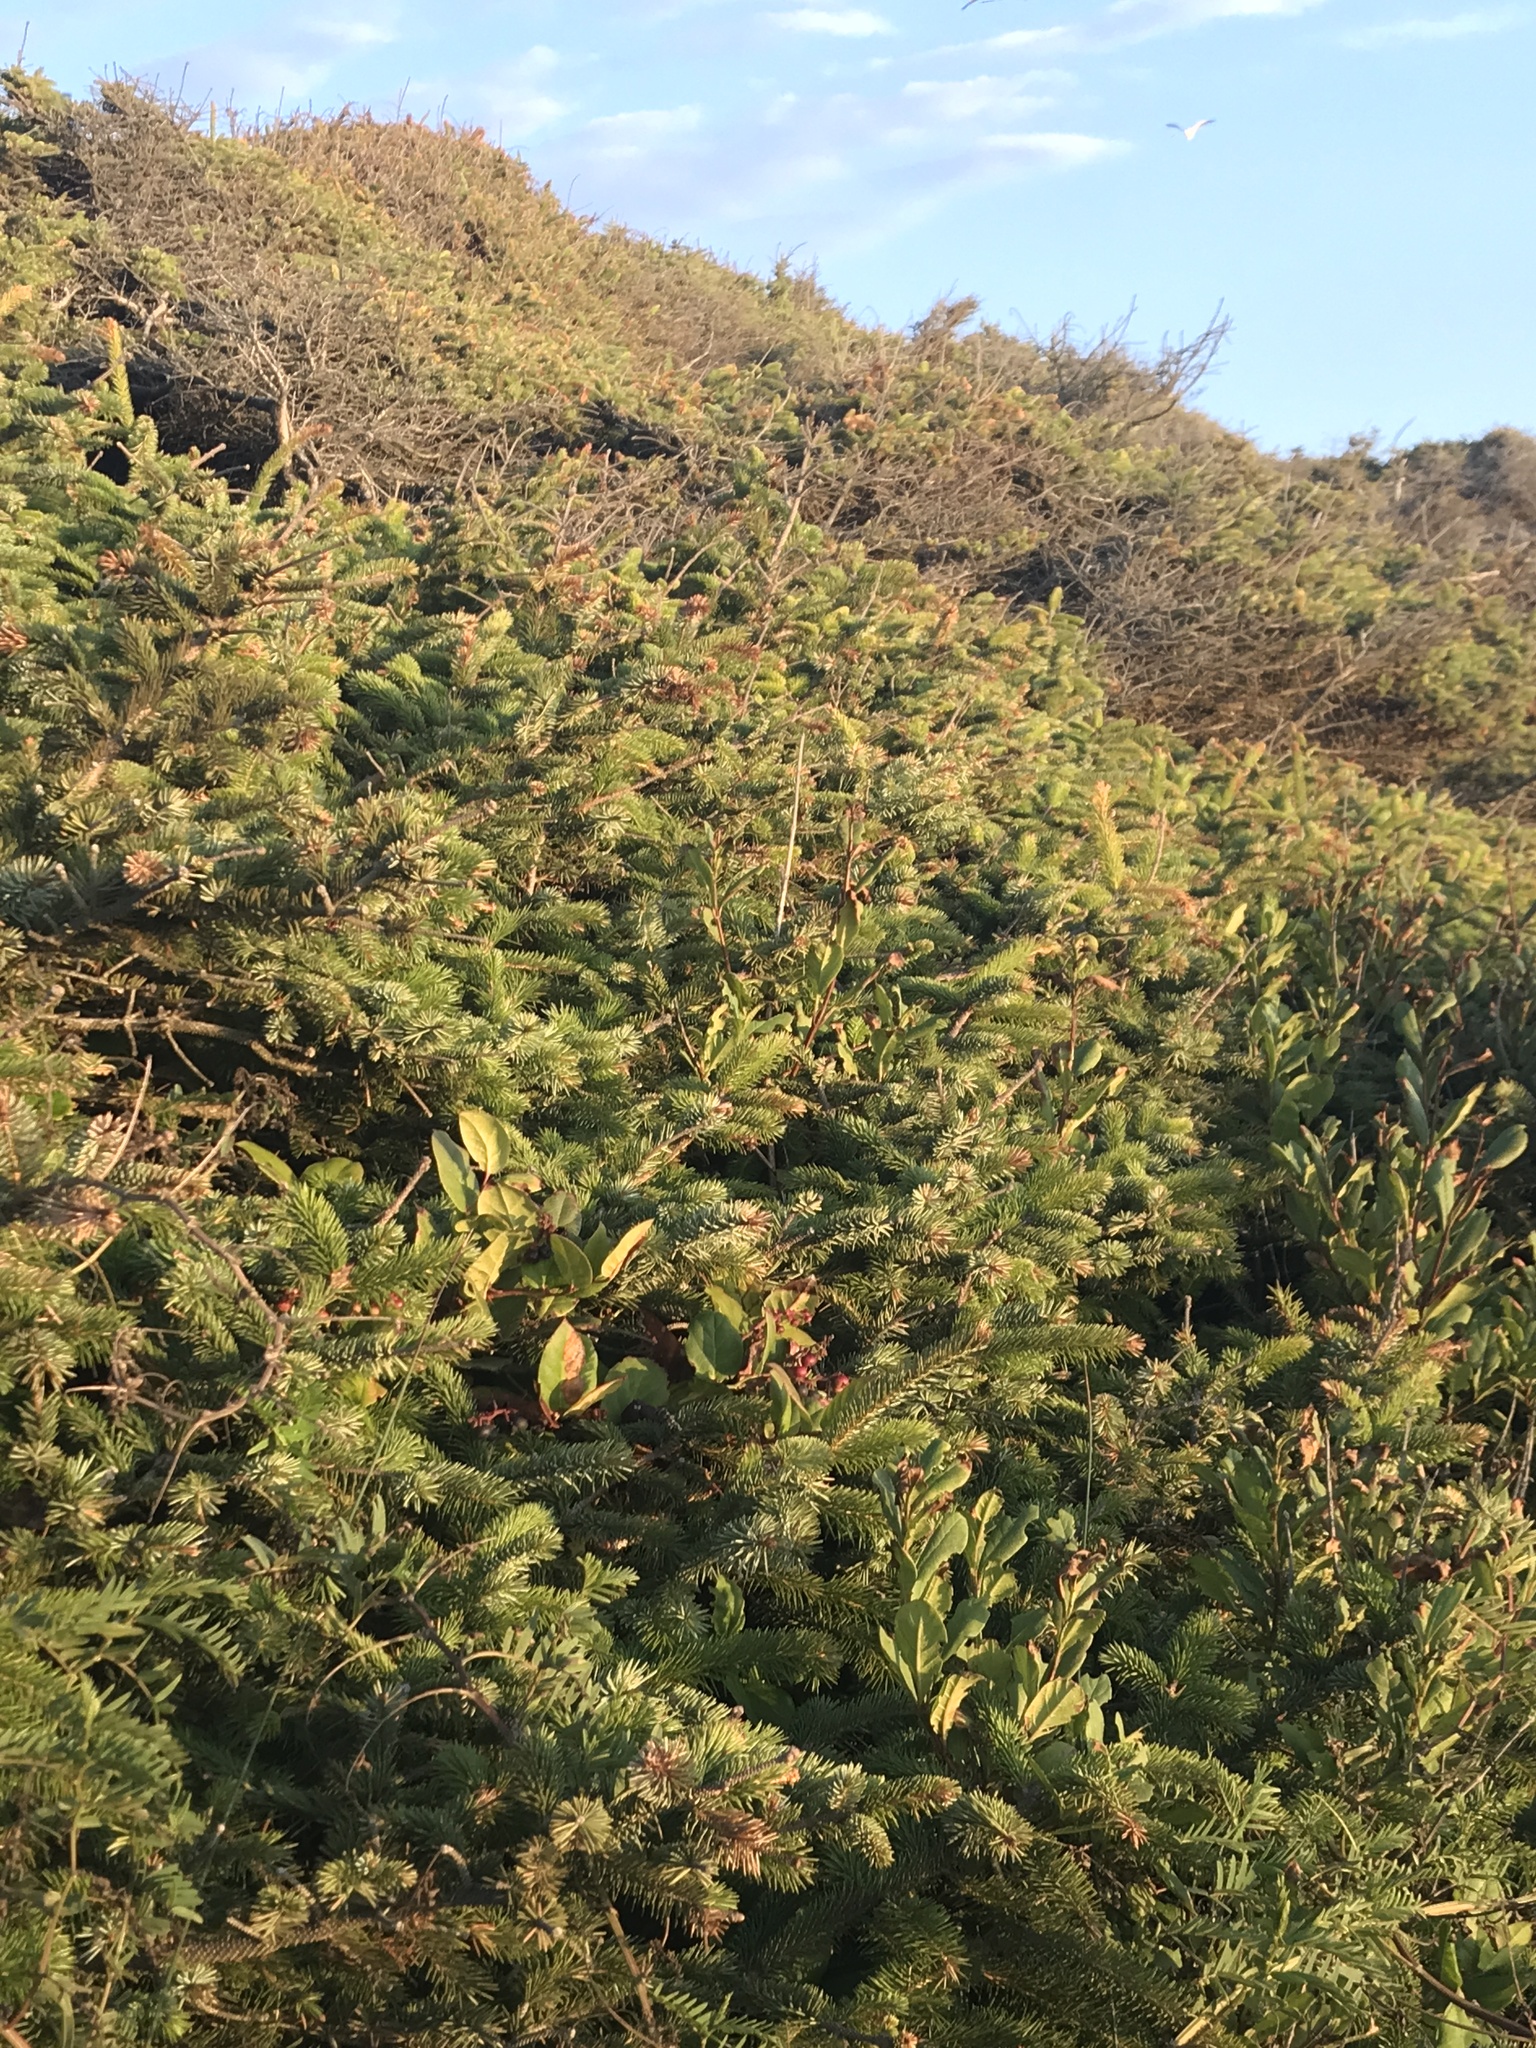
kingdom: Plantae
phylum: Tracheophyta
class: Pinopsida
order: Pinales
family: Pinaceae
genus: Picea
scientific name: Picea sitchensis
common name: Sitka spruce
